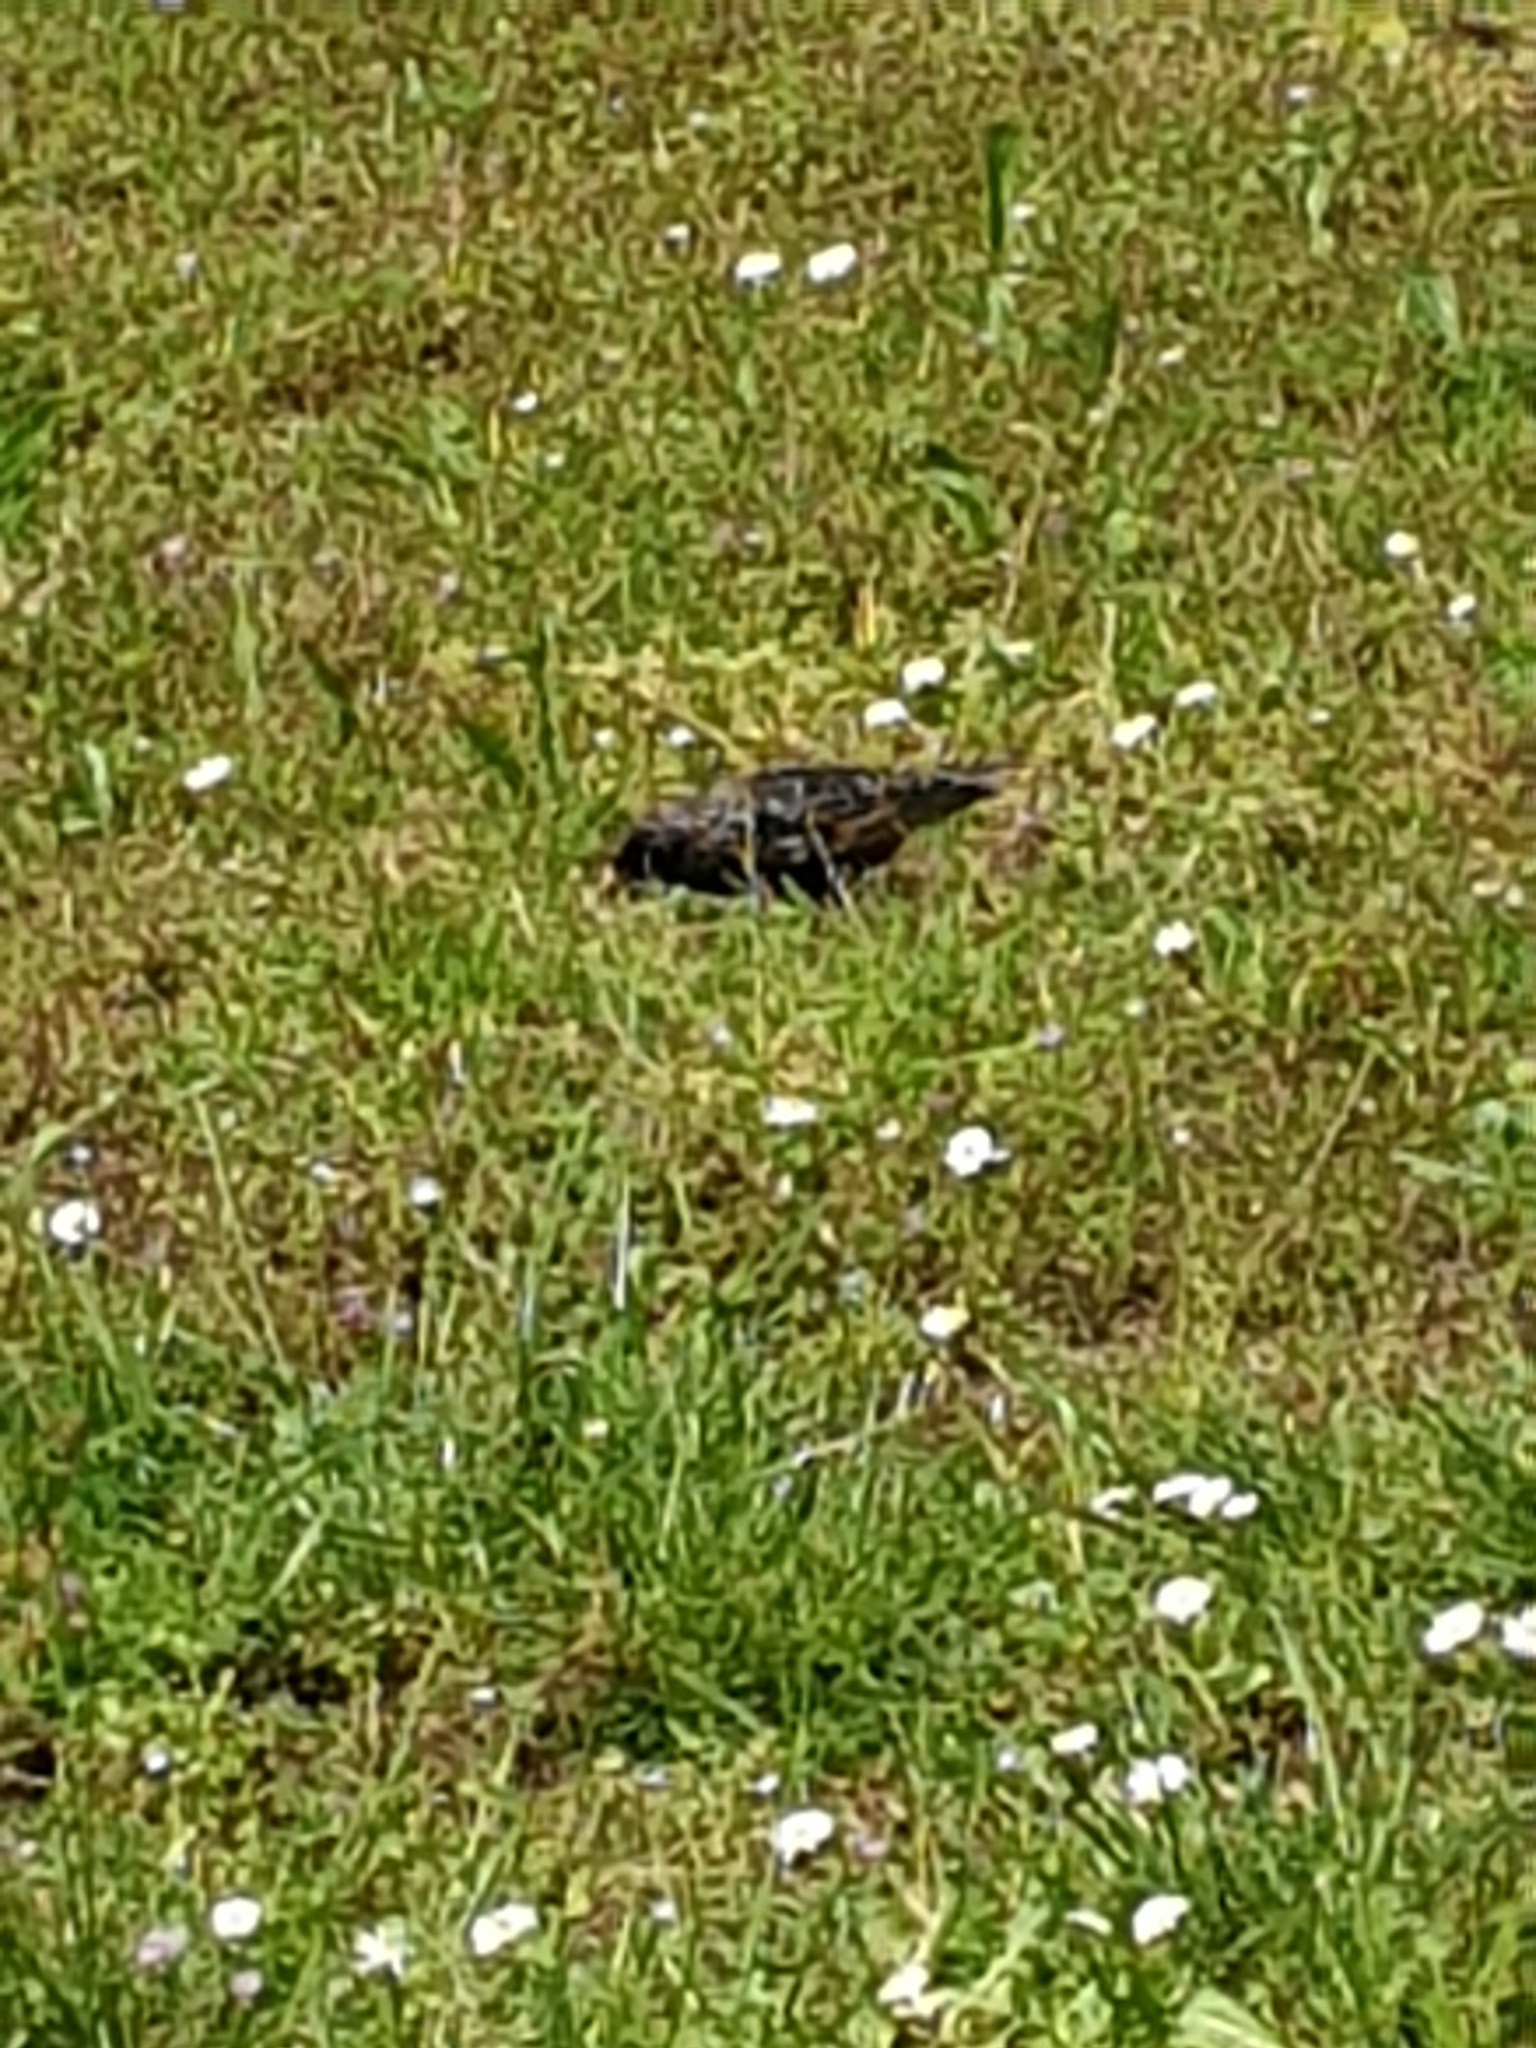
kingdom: Animalia
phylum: Chordata
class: Aves
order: Passeriformes
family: Sturnidae
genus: Sturnus
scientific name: Sturnus vulgaris
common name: Common starling
